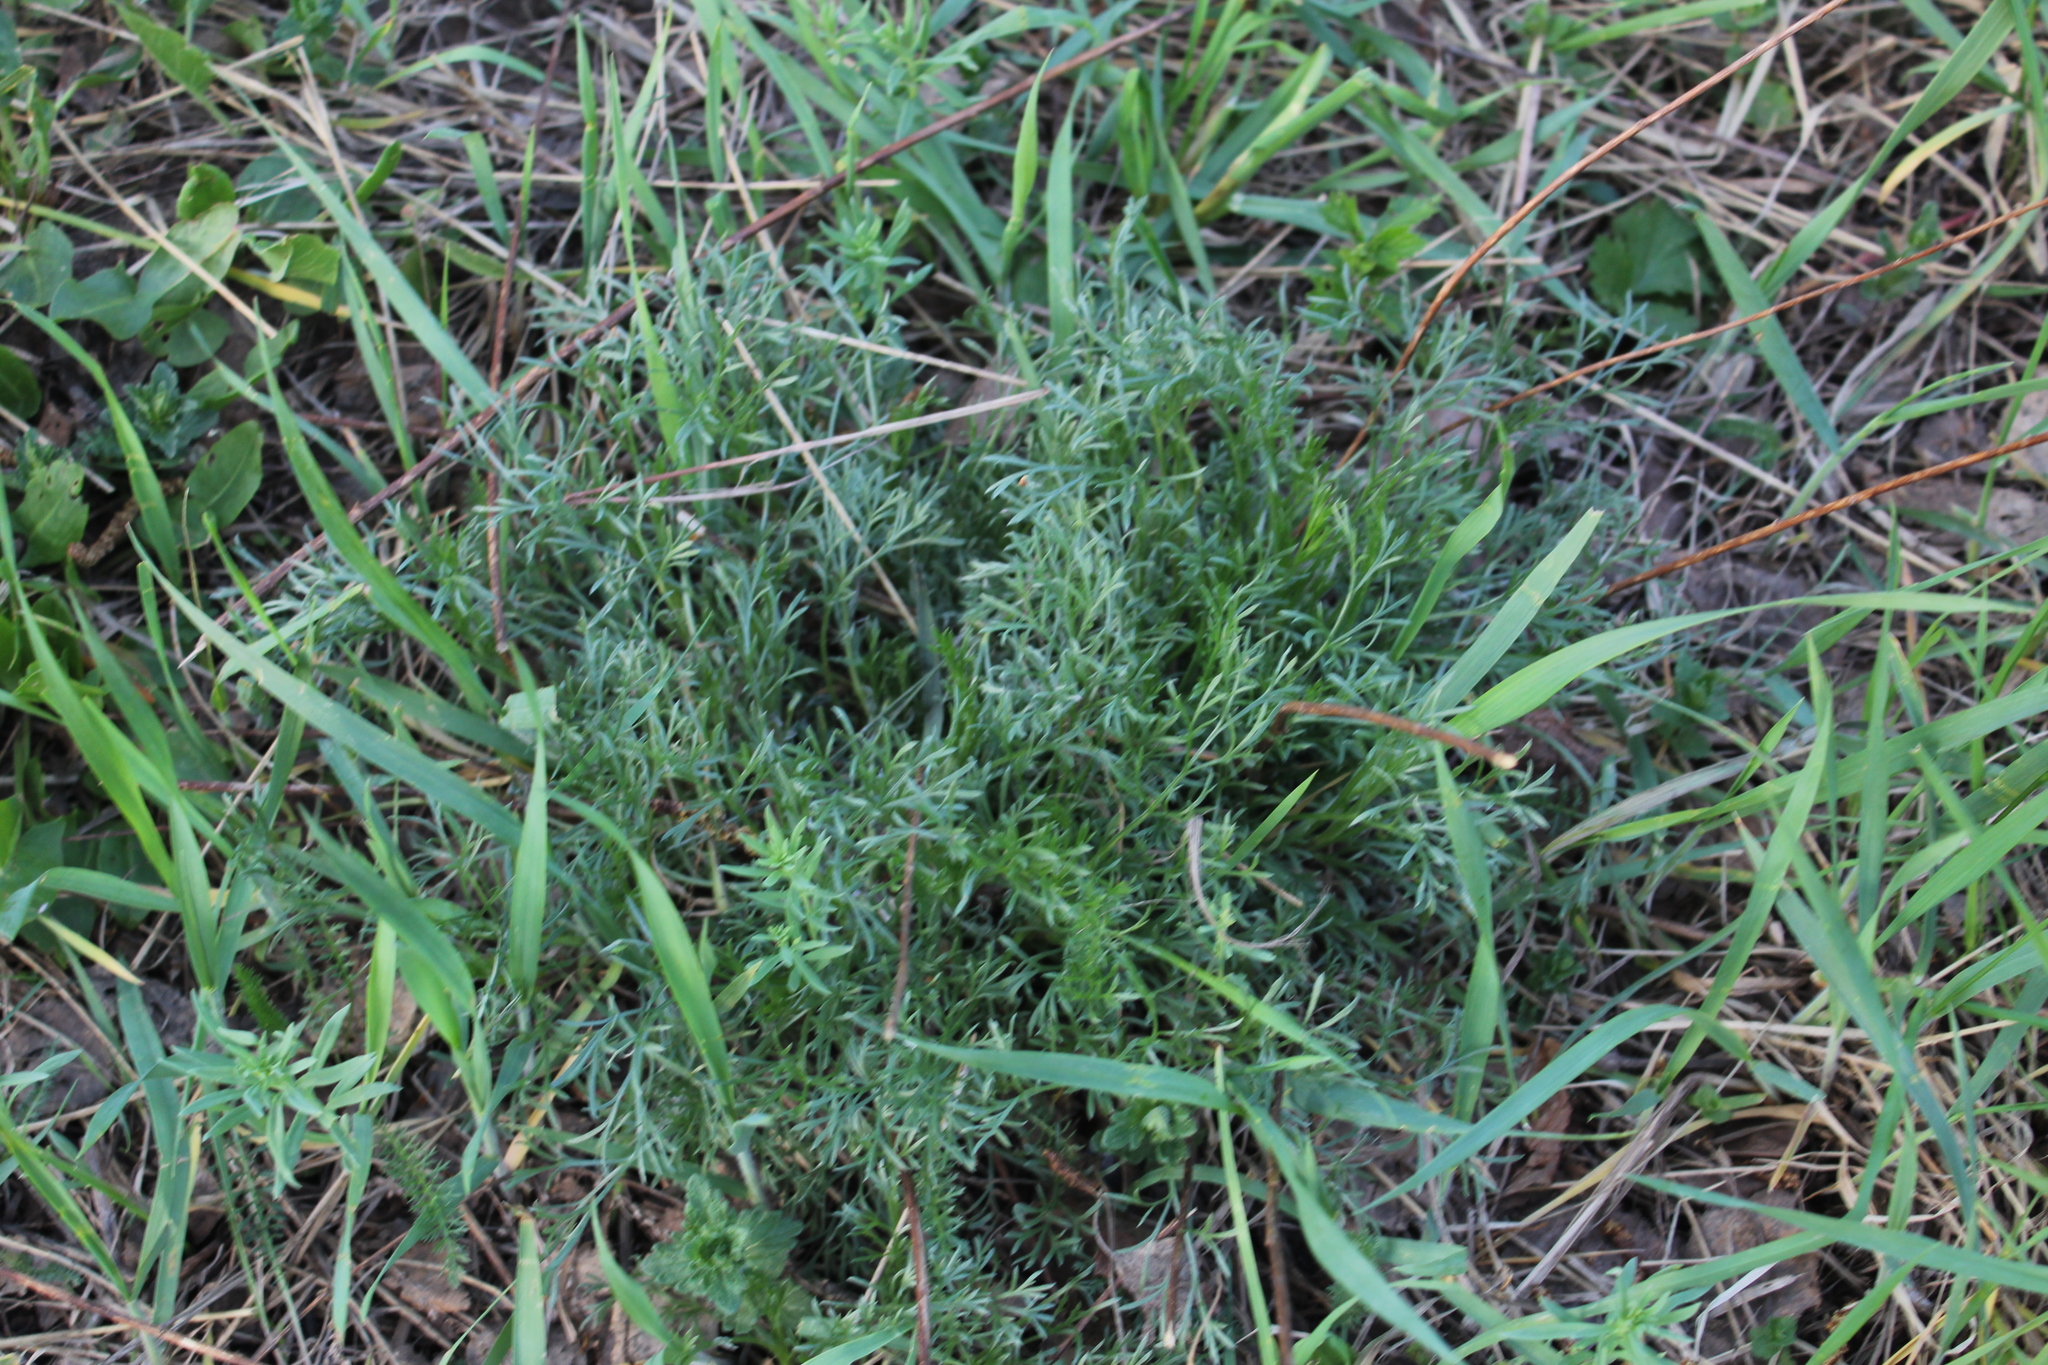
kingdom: Plantae
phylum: Tracheophyta
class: Magnoliopsida
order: Asterales
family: Asteraceae
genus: Artemisia
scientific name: Artemisia campestris
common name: Field wormwood
